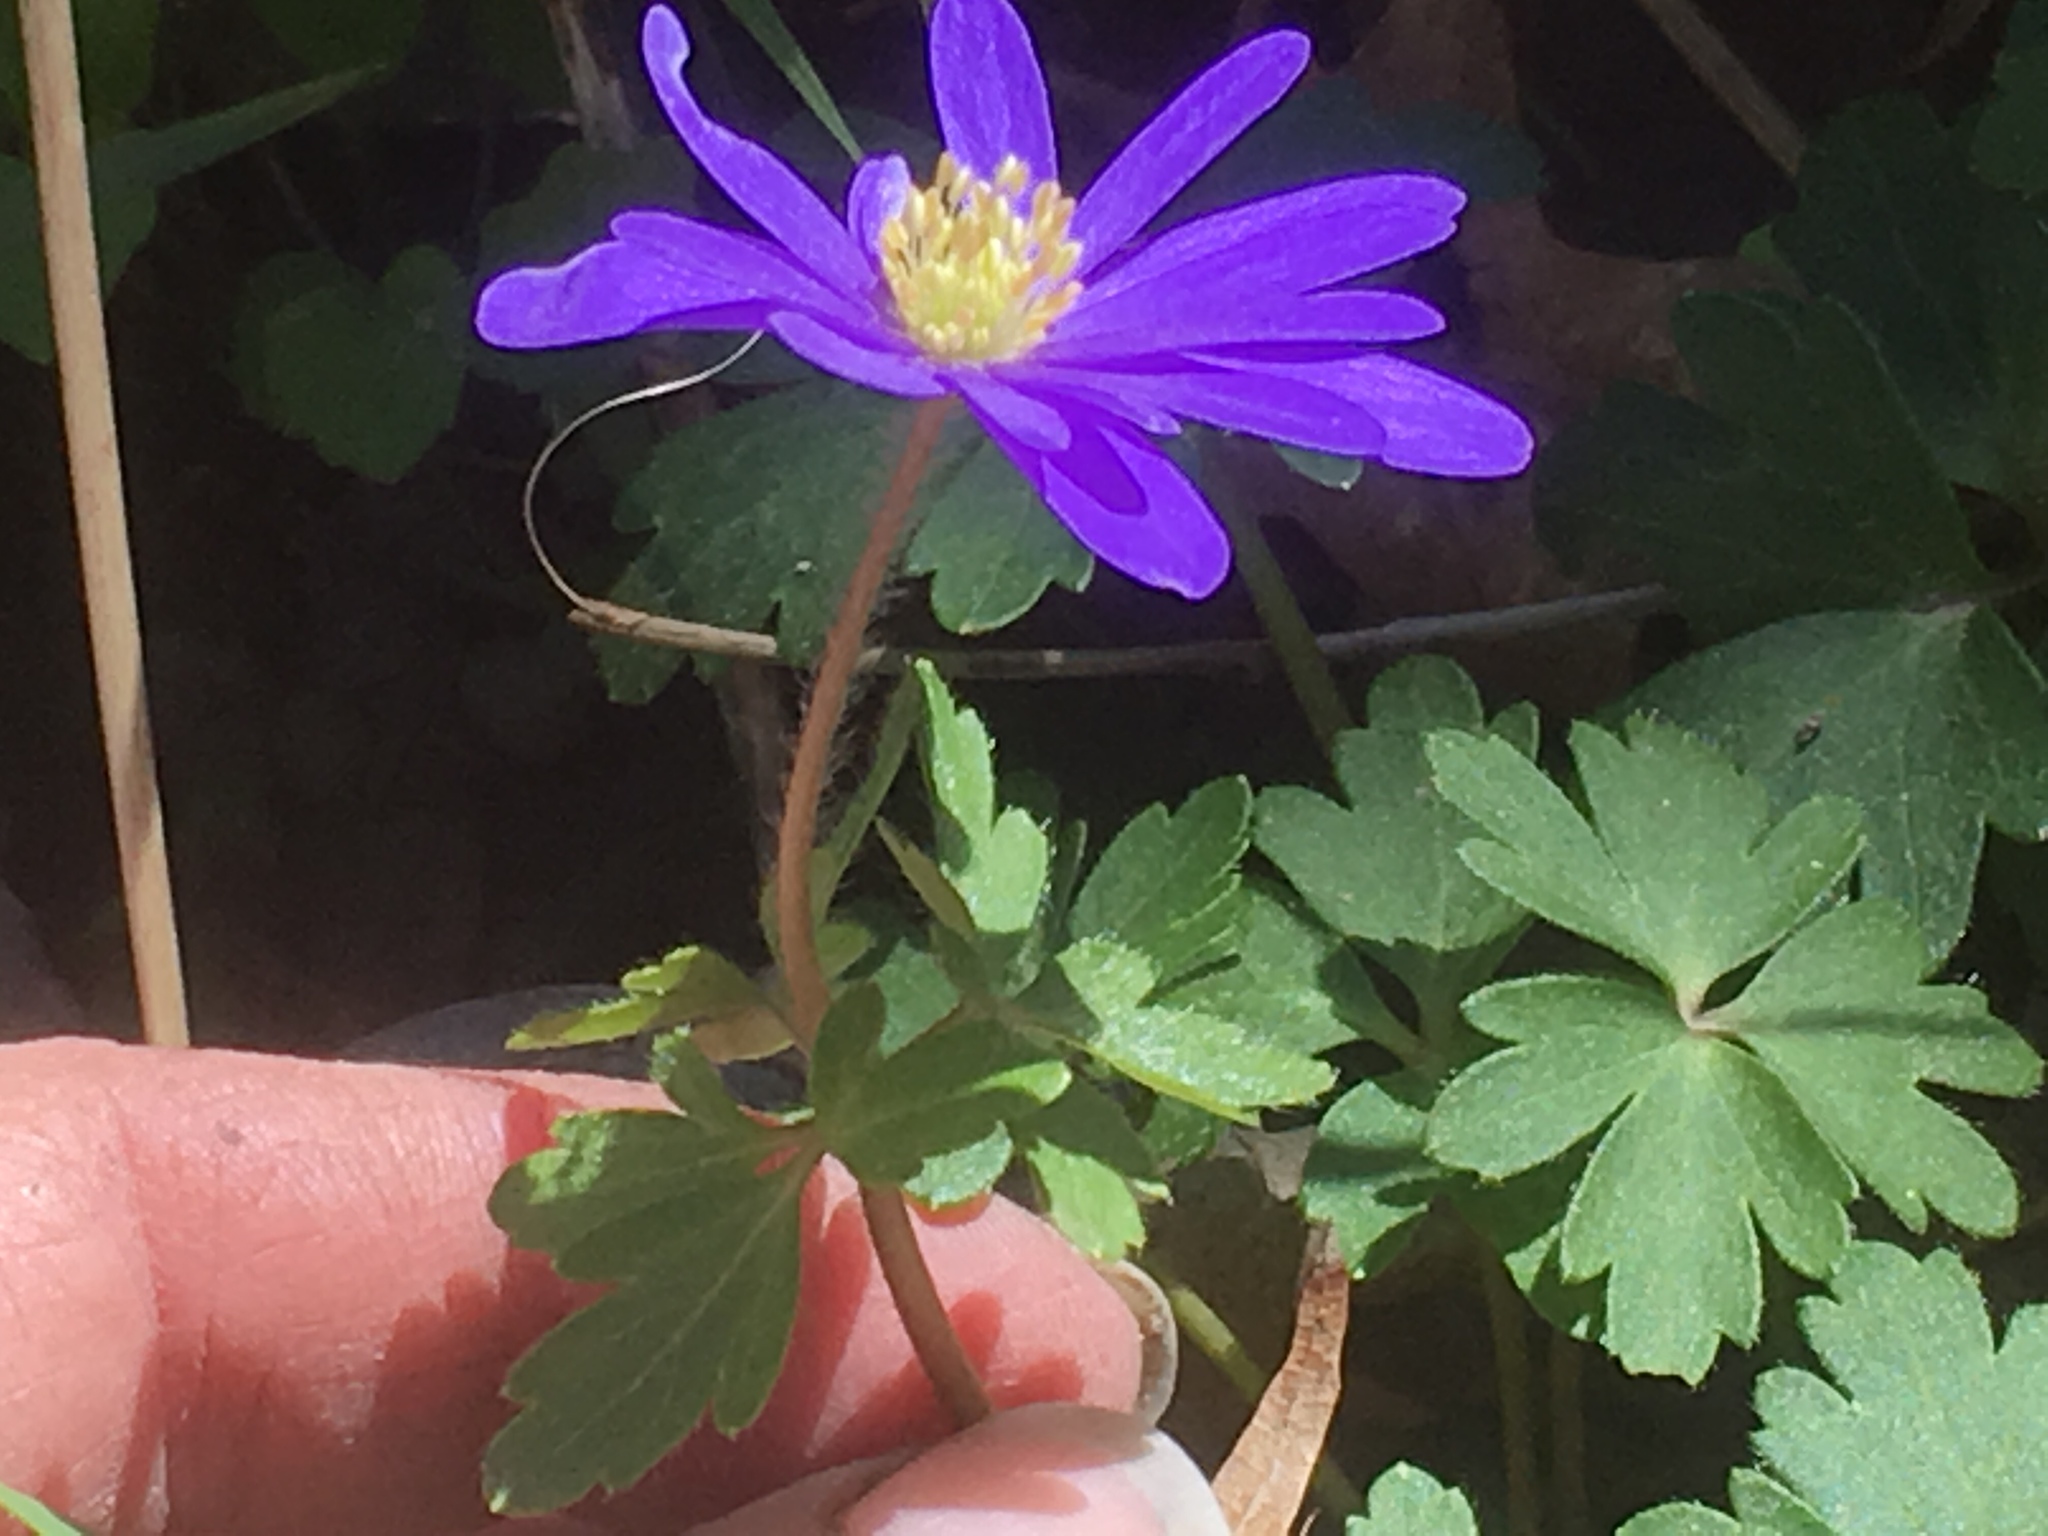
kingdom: Plantae
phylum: Tracheophyta
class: Magnoliopsida
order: Ranunculales
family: Ranunculaceae
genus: Anemone
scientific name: Anemone blanda
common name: Balkan anemone
